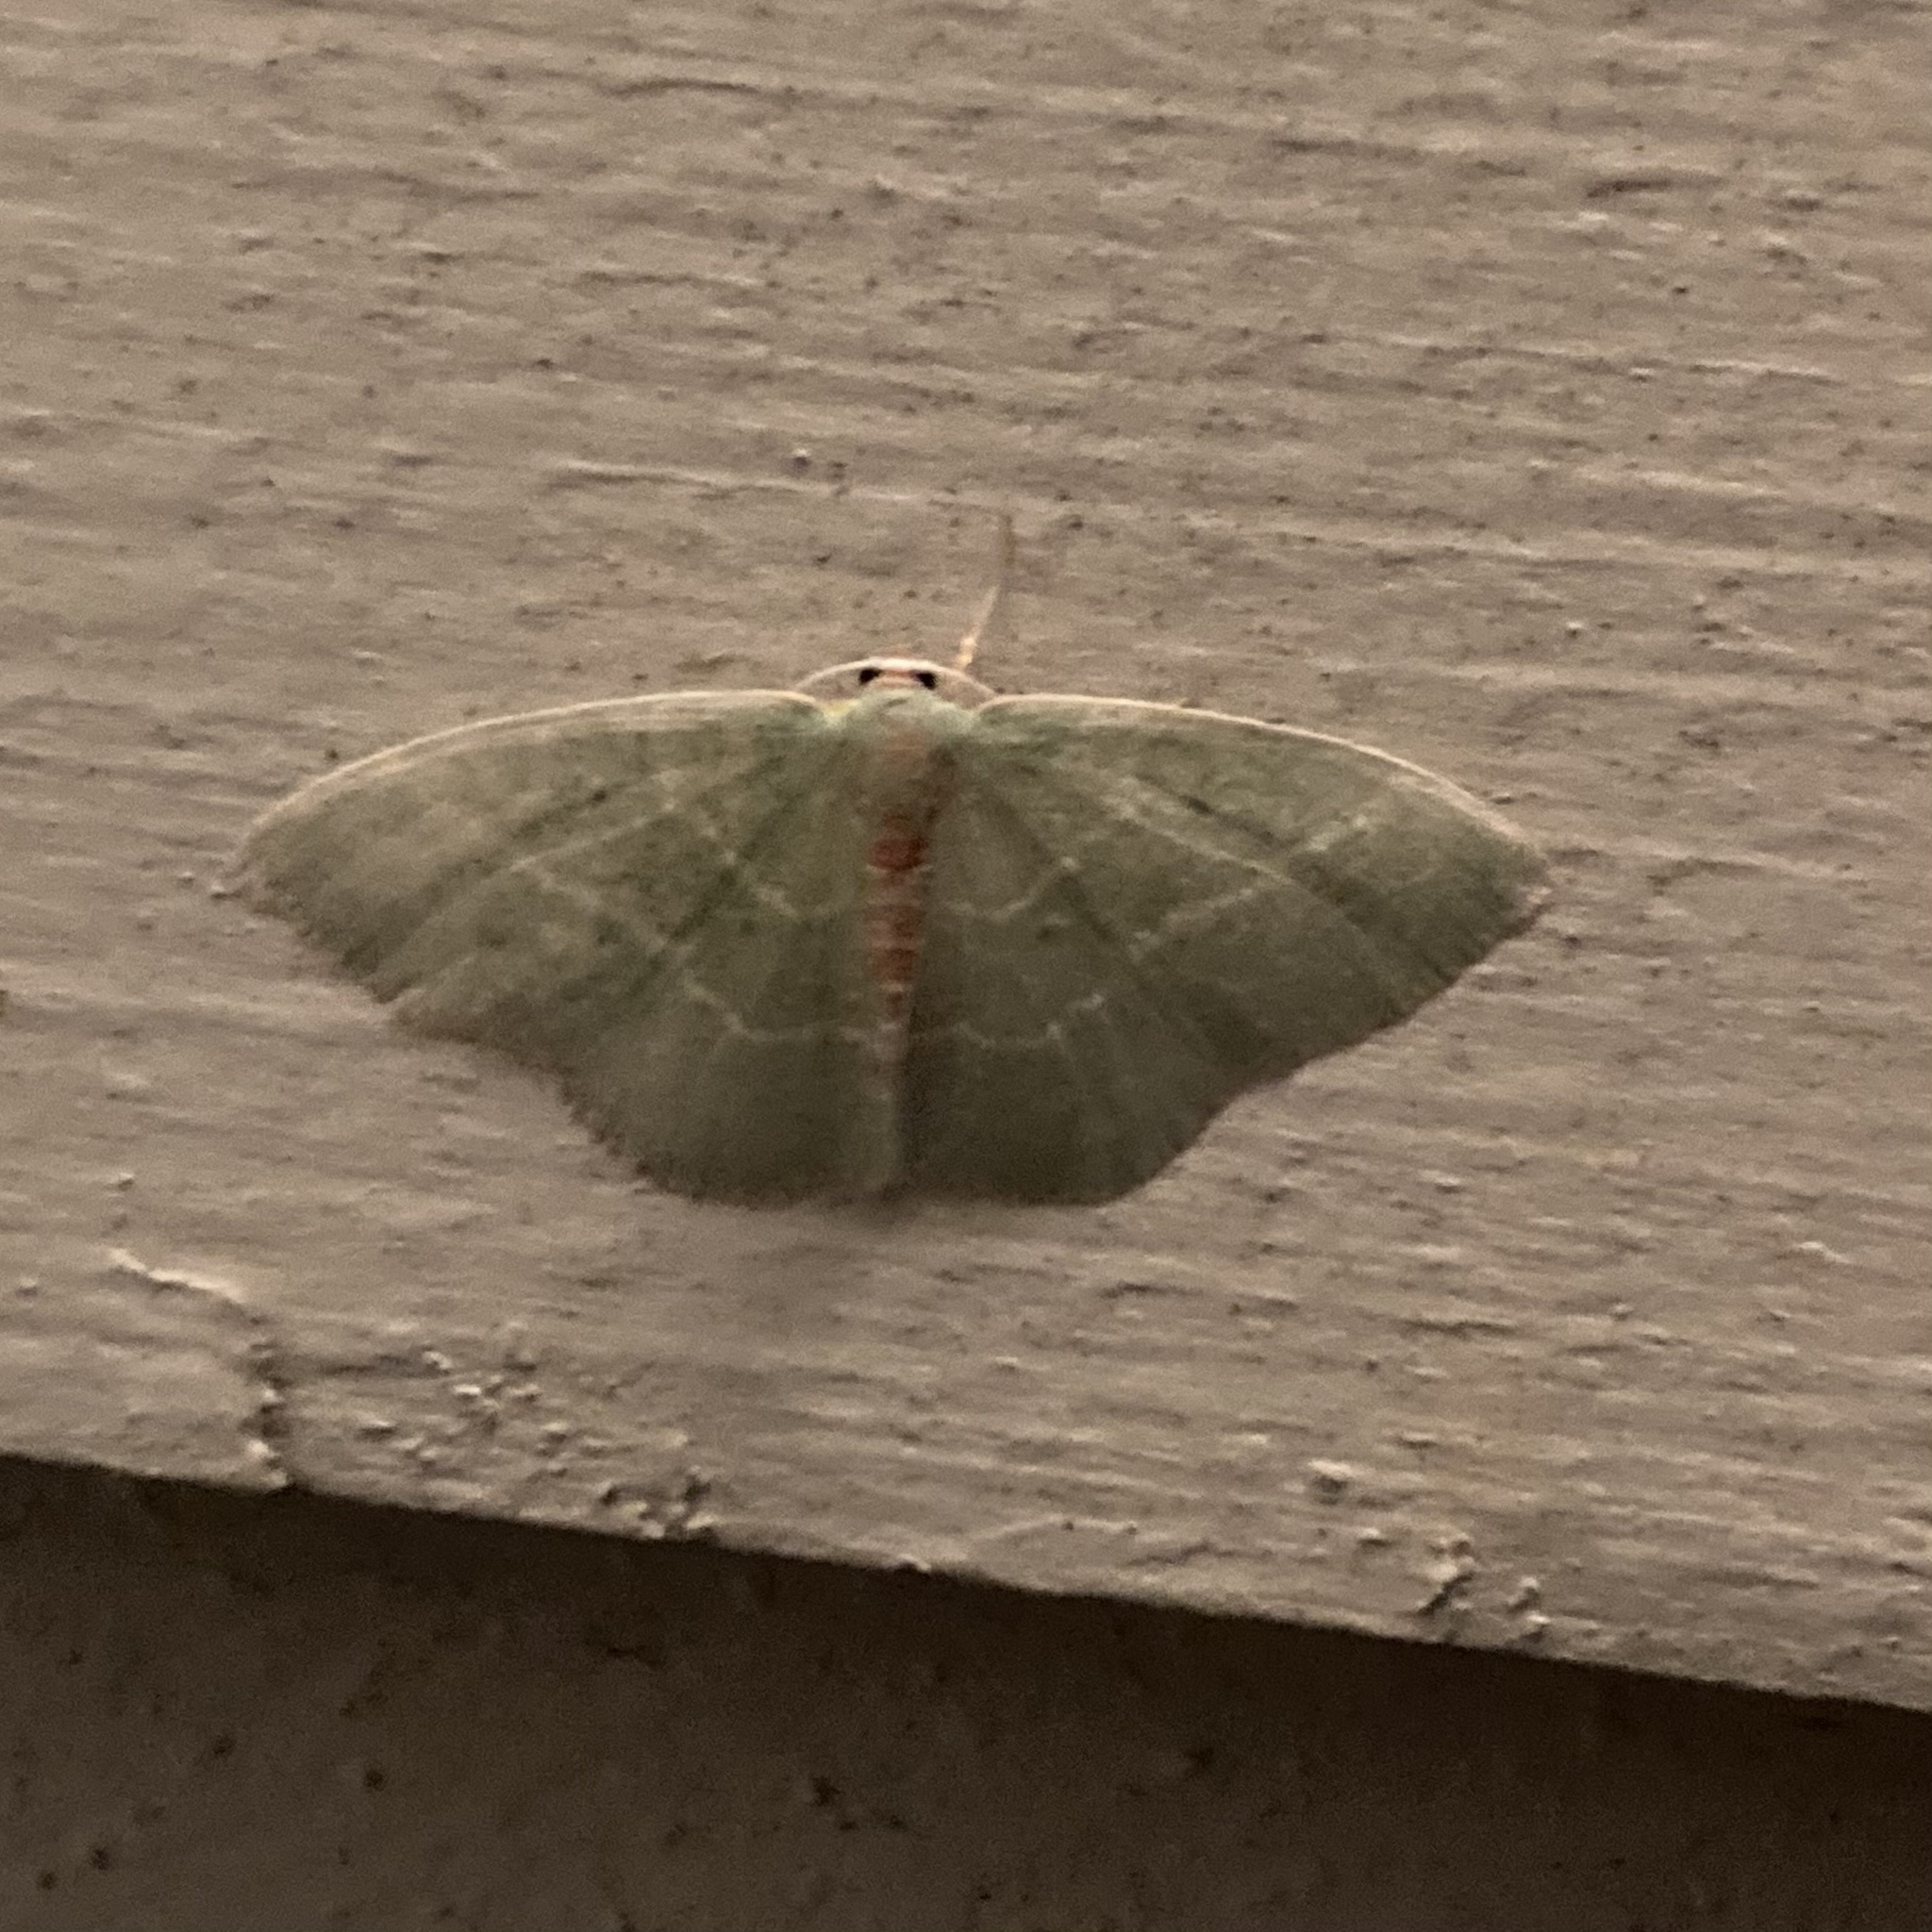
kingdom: Animalia
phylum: Arthropoda
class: Insecta
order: Lepidoptera
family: Geometridae
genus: Nemoria
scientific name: Nemoria bistriaria
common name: Red-fringed emerald
